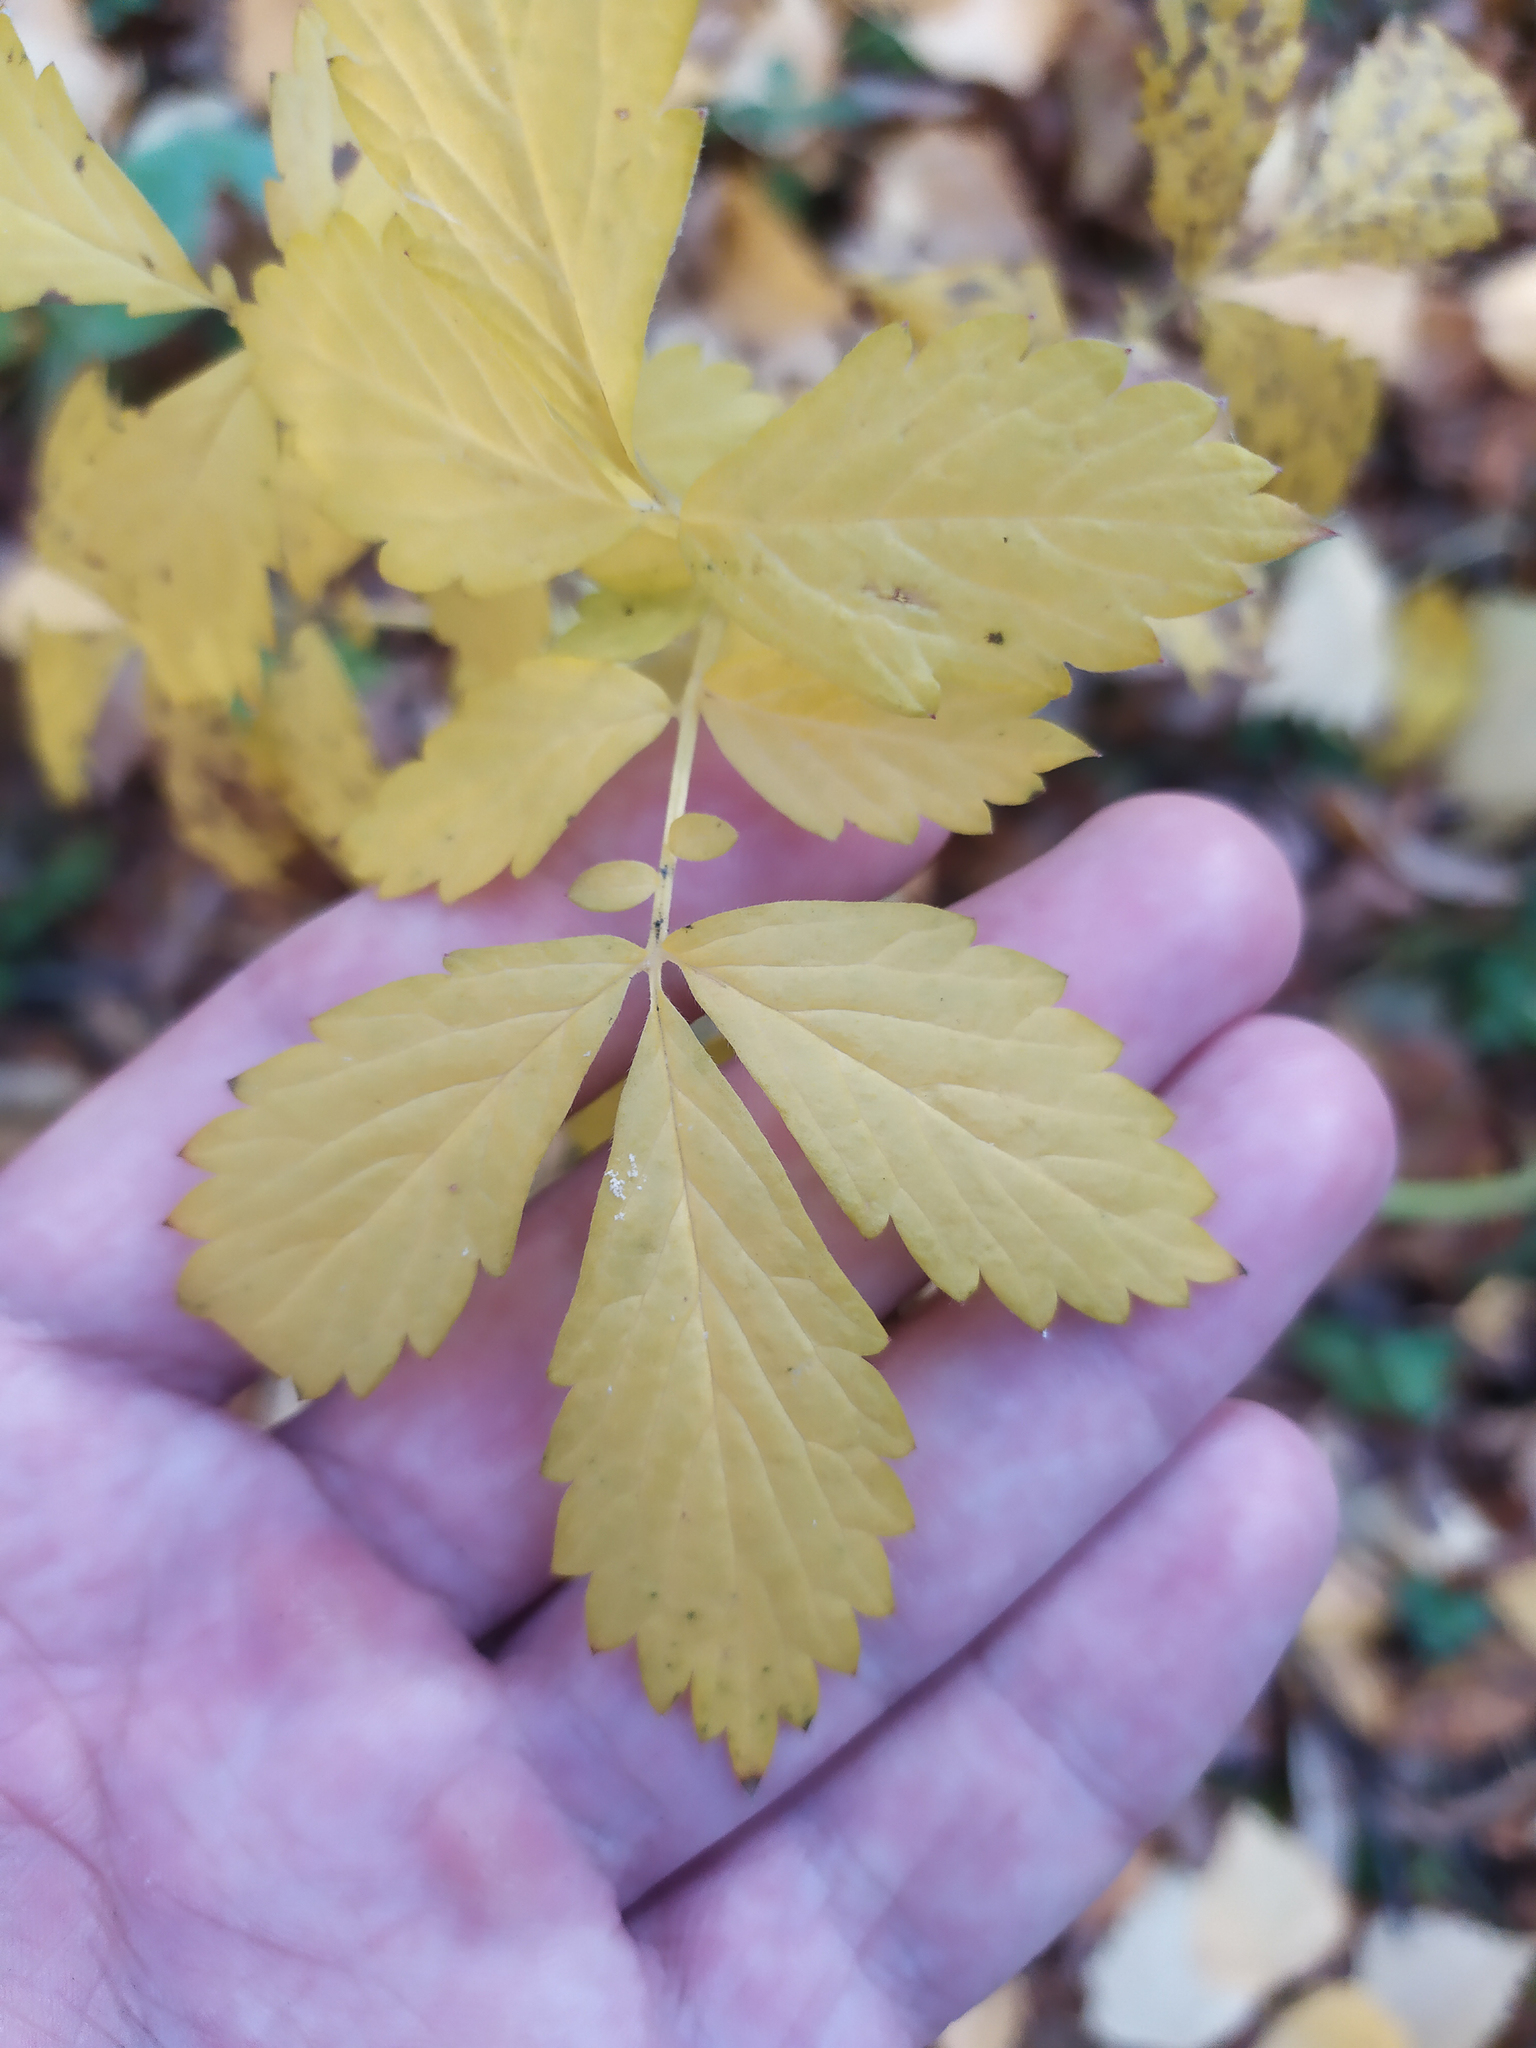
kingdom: Plantae
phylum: Tracheophyta
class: Magnoliopsida
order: Rosales
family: Rosaceae
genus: Agrimonia
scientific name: Agrimonia pilosa
